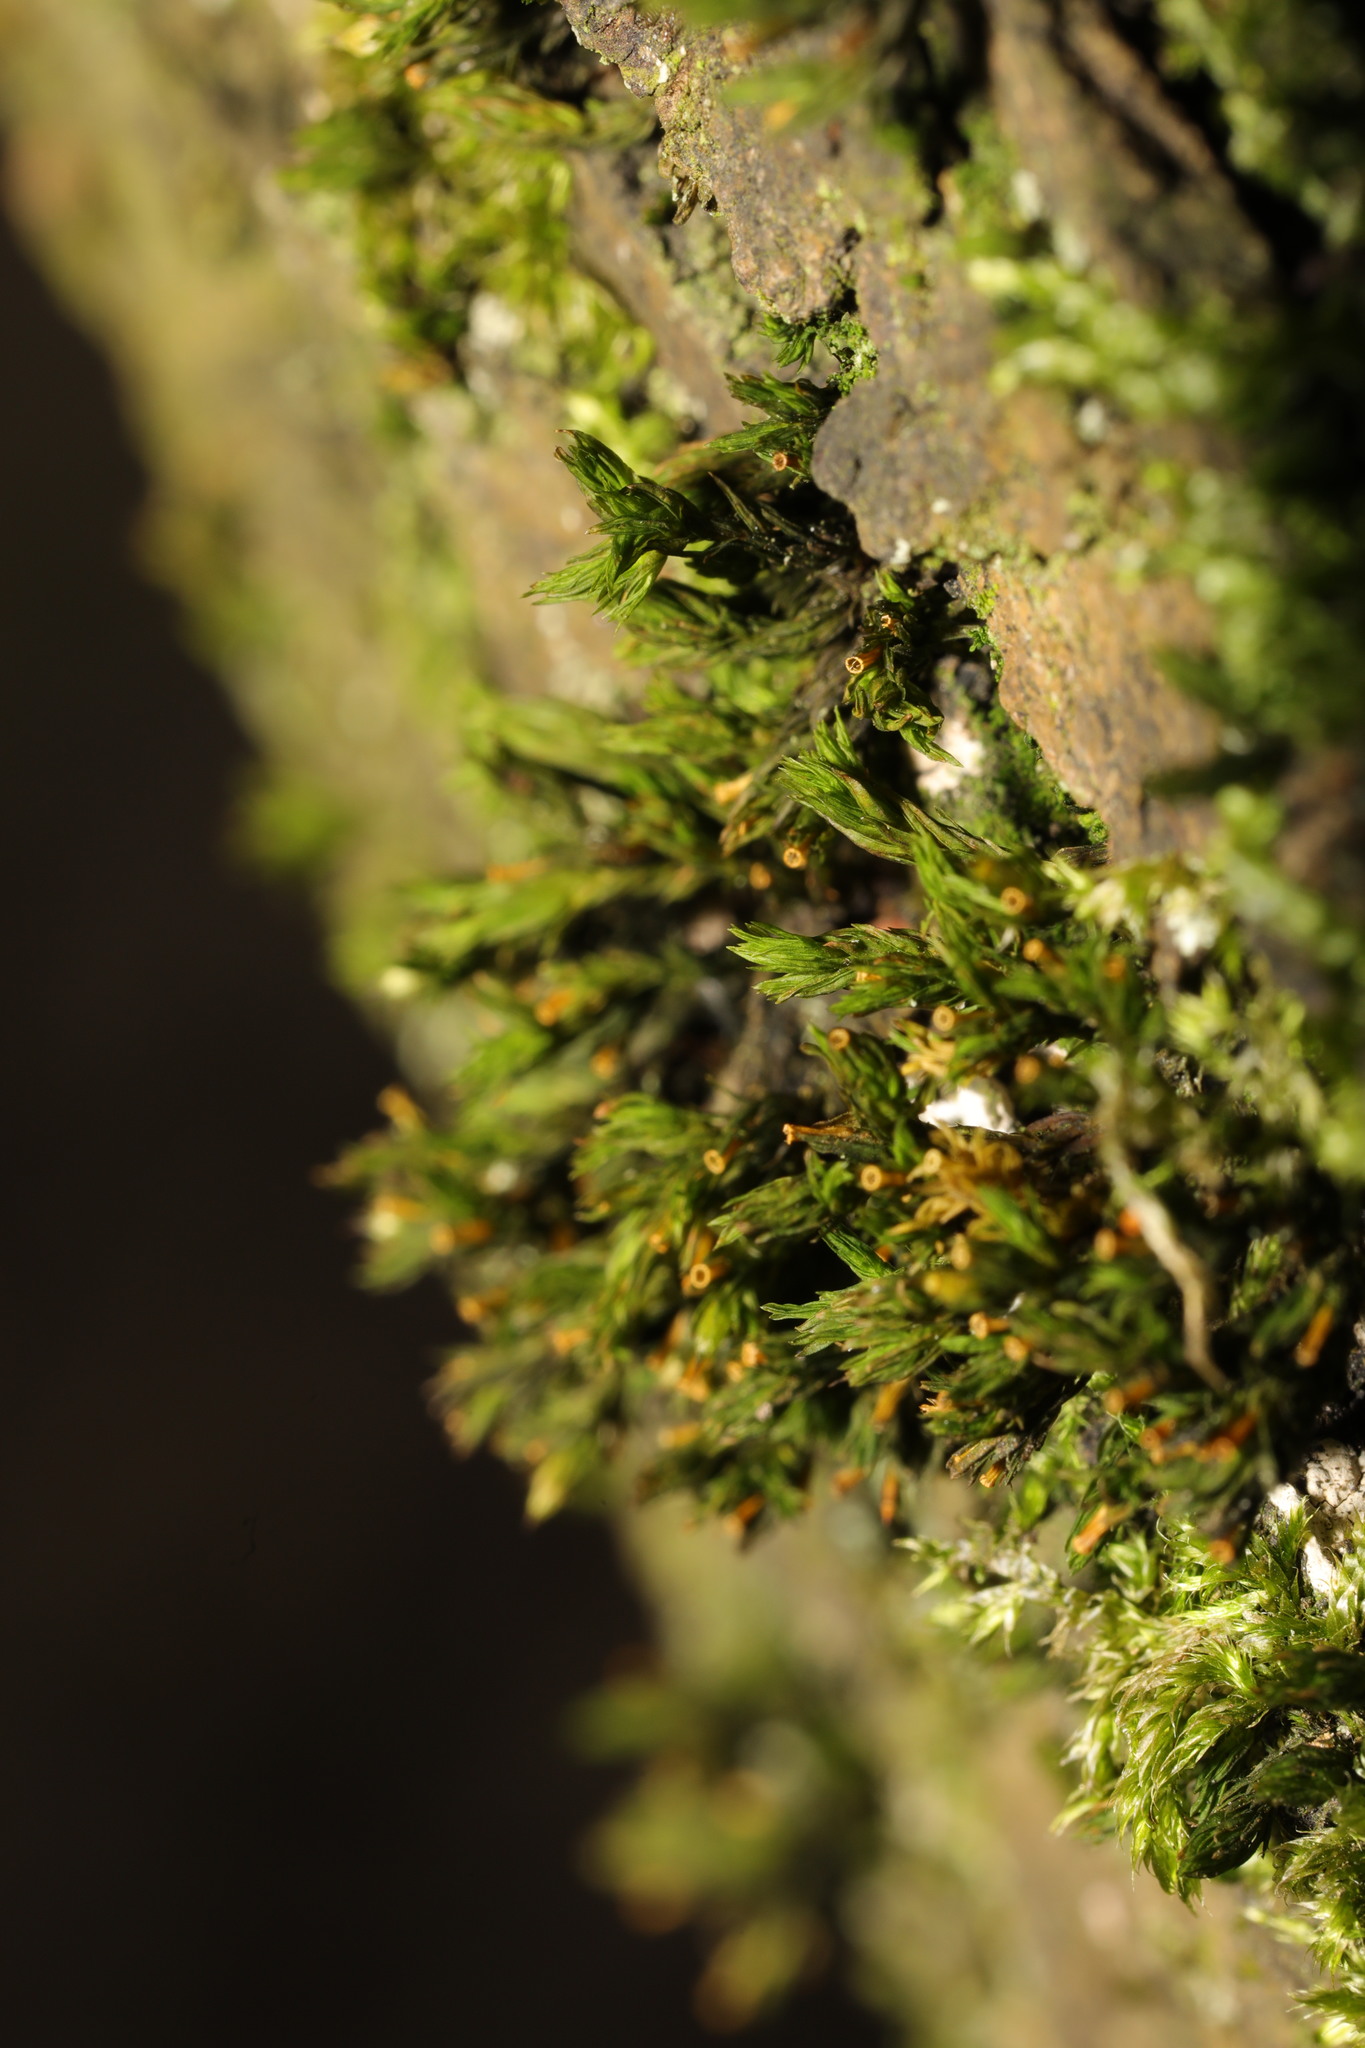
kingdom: Plantae
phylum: Bryophyta
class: Bryopsida
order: Orthotrichales
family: Orthotrichaceae
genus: Lewinskya
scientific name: Lewinskya affinis
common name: Wood bristle-moss
